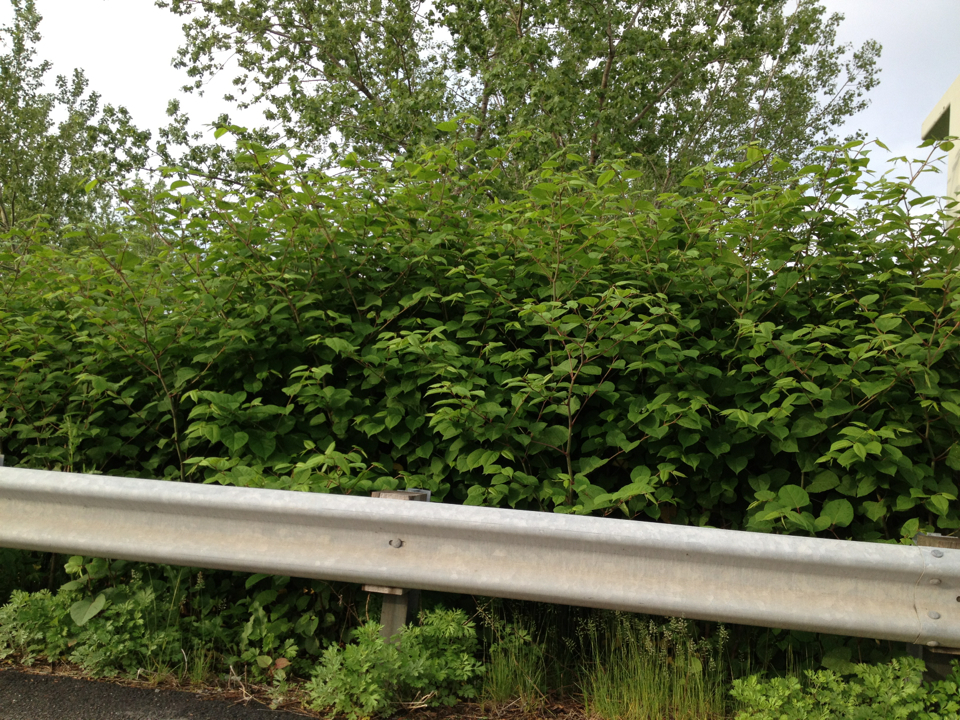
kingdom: Plantae
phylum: Tracheophyta
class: Magnoliopsida
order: Caryophyllales
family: Polygonaceae
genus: Reynoutria
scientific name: Reynoutria japonica
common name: Japanese knotweed
